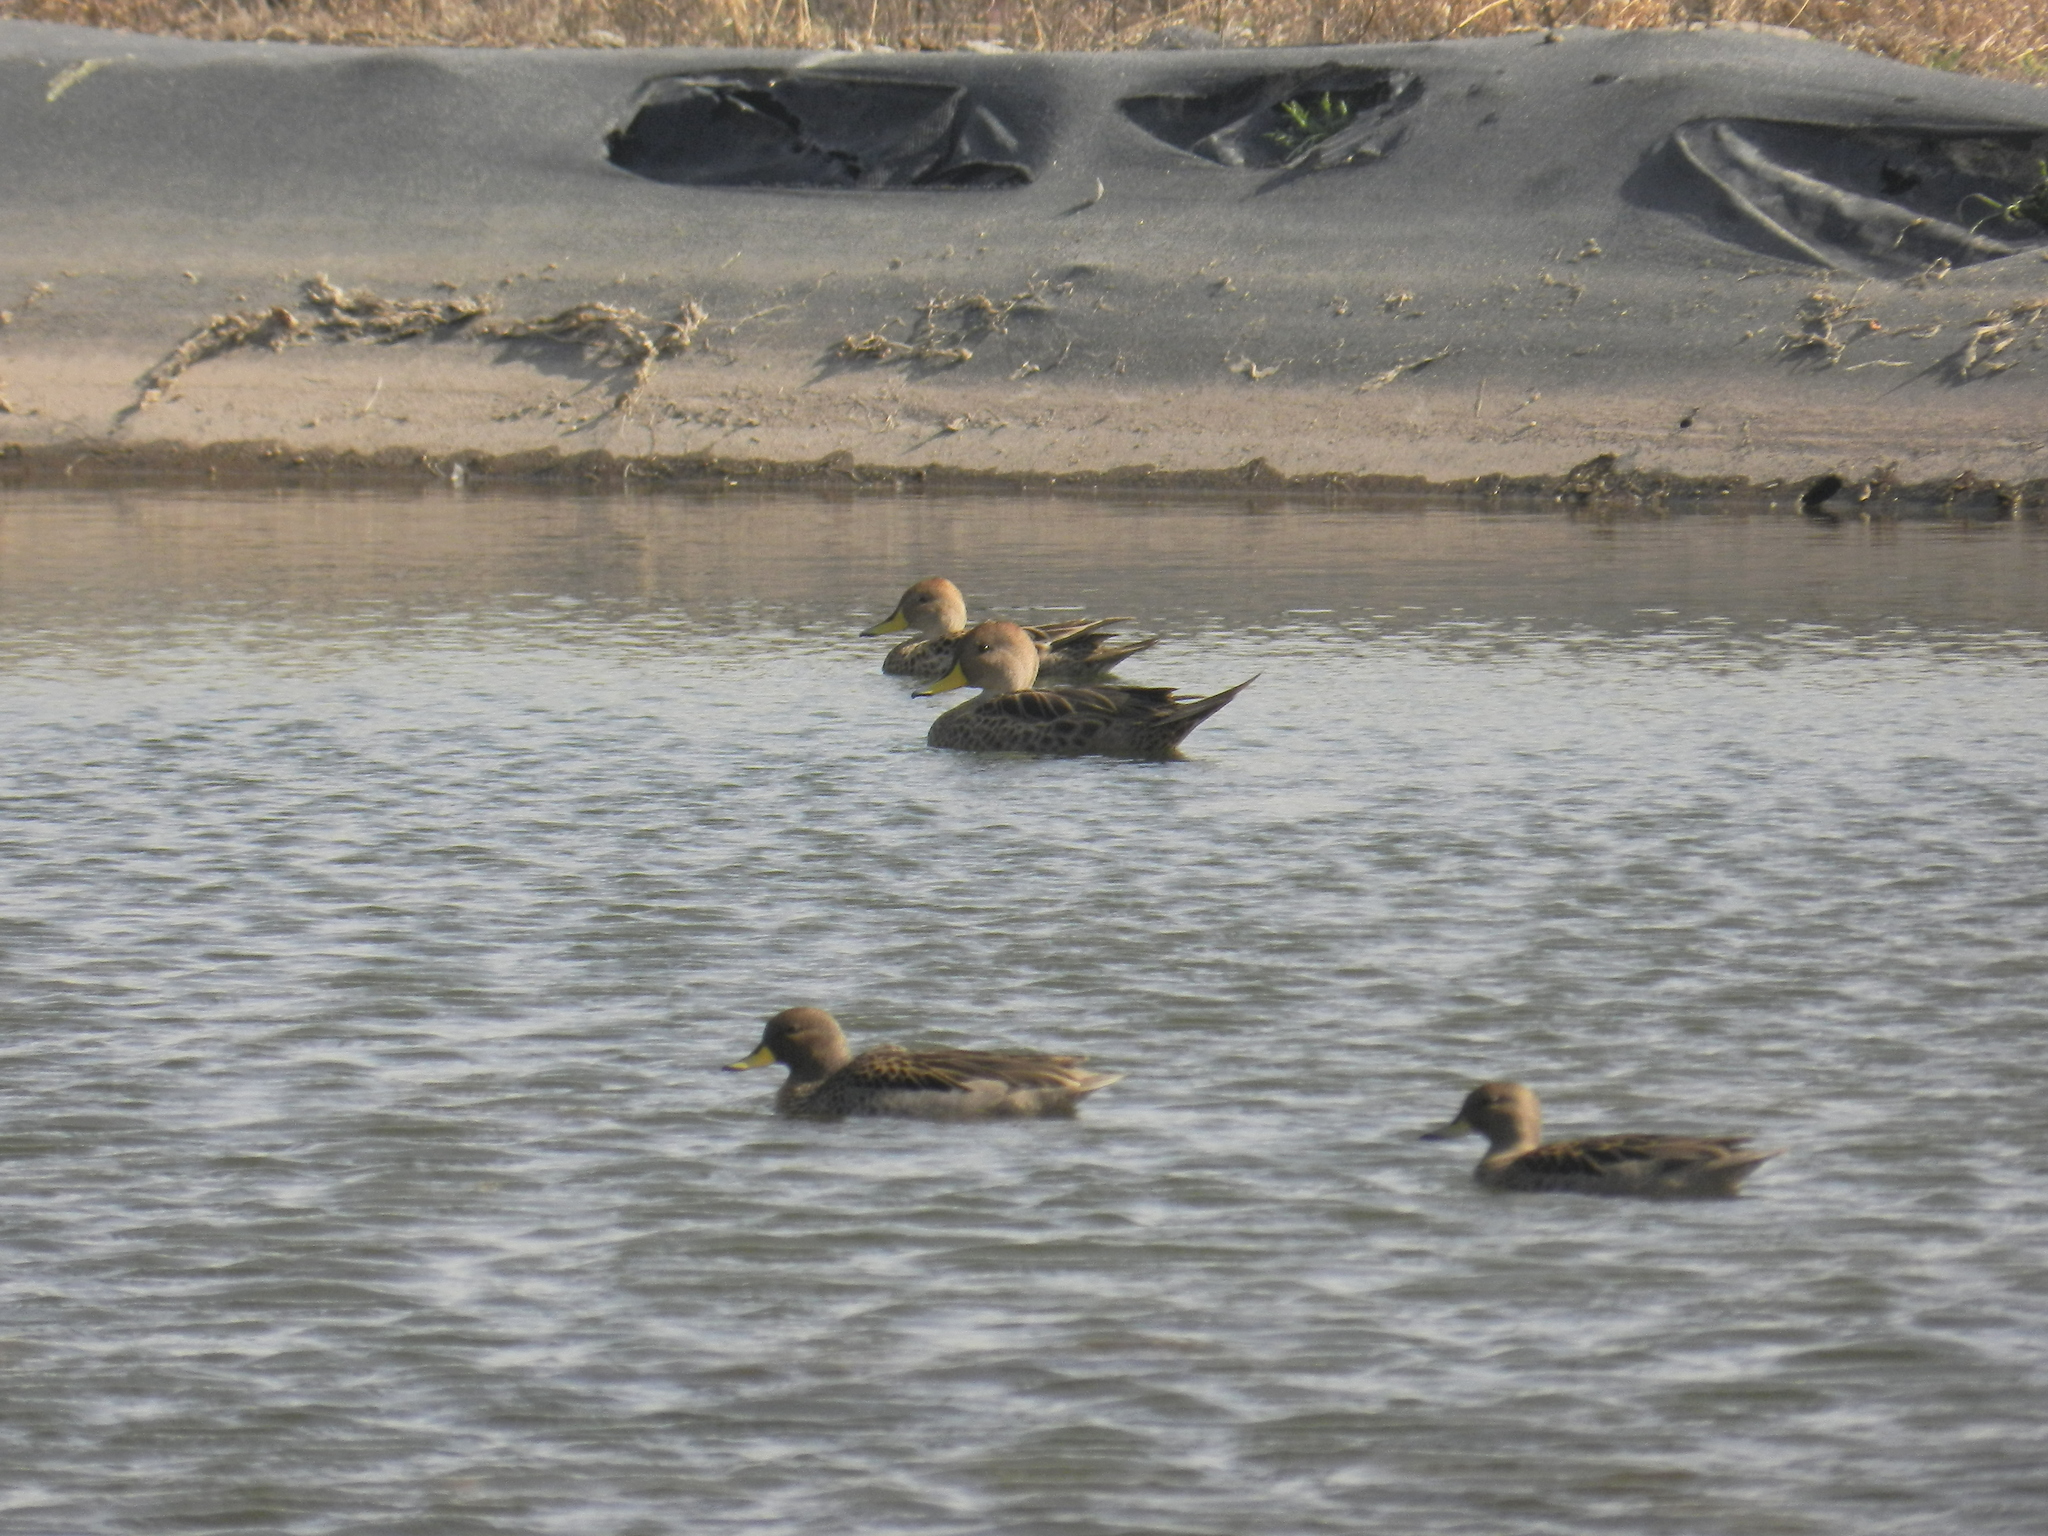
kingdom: Animalia
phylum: Chordata
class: Aves
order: Anseriformes
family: Anatidae
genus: Anas
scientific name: Anas flavirostris
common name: Yellow-billed teal
